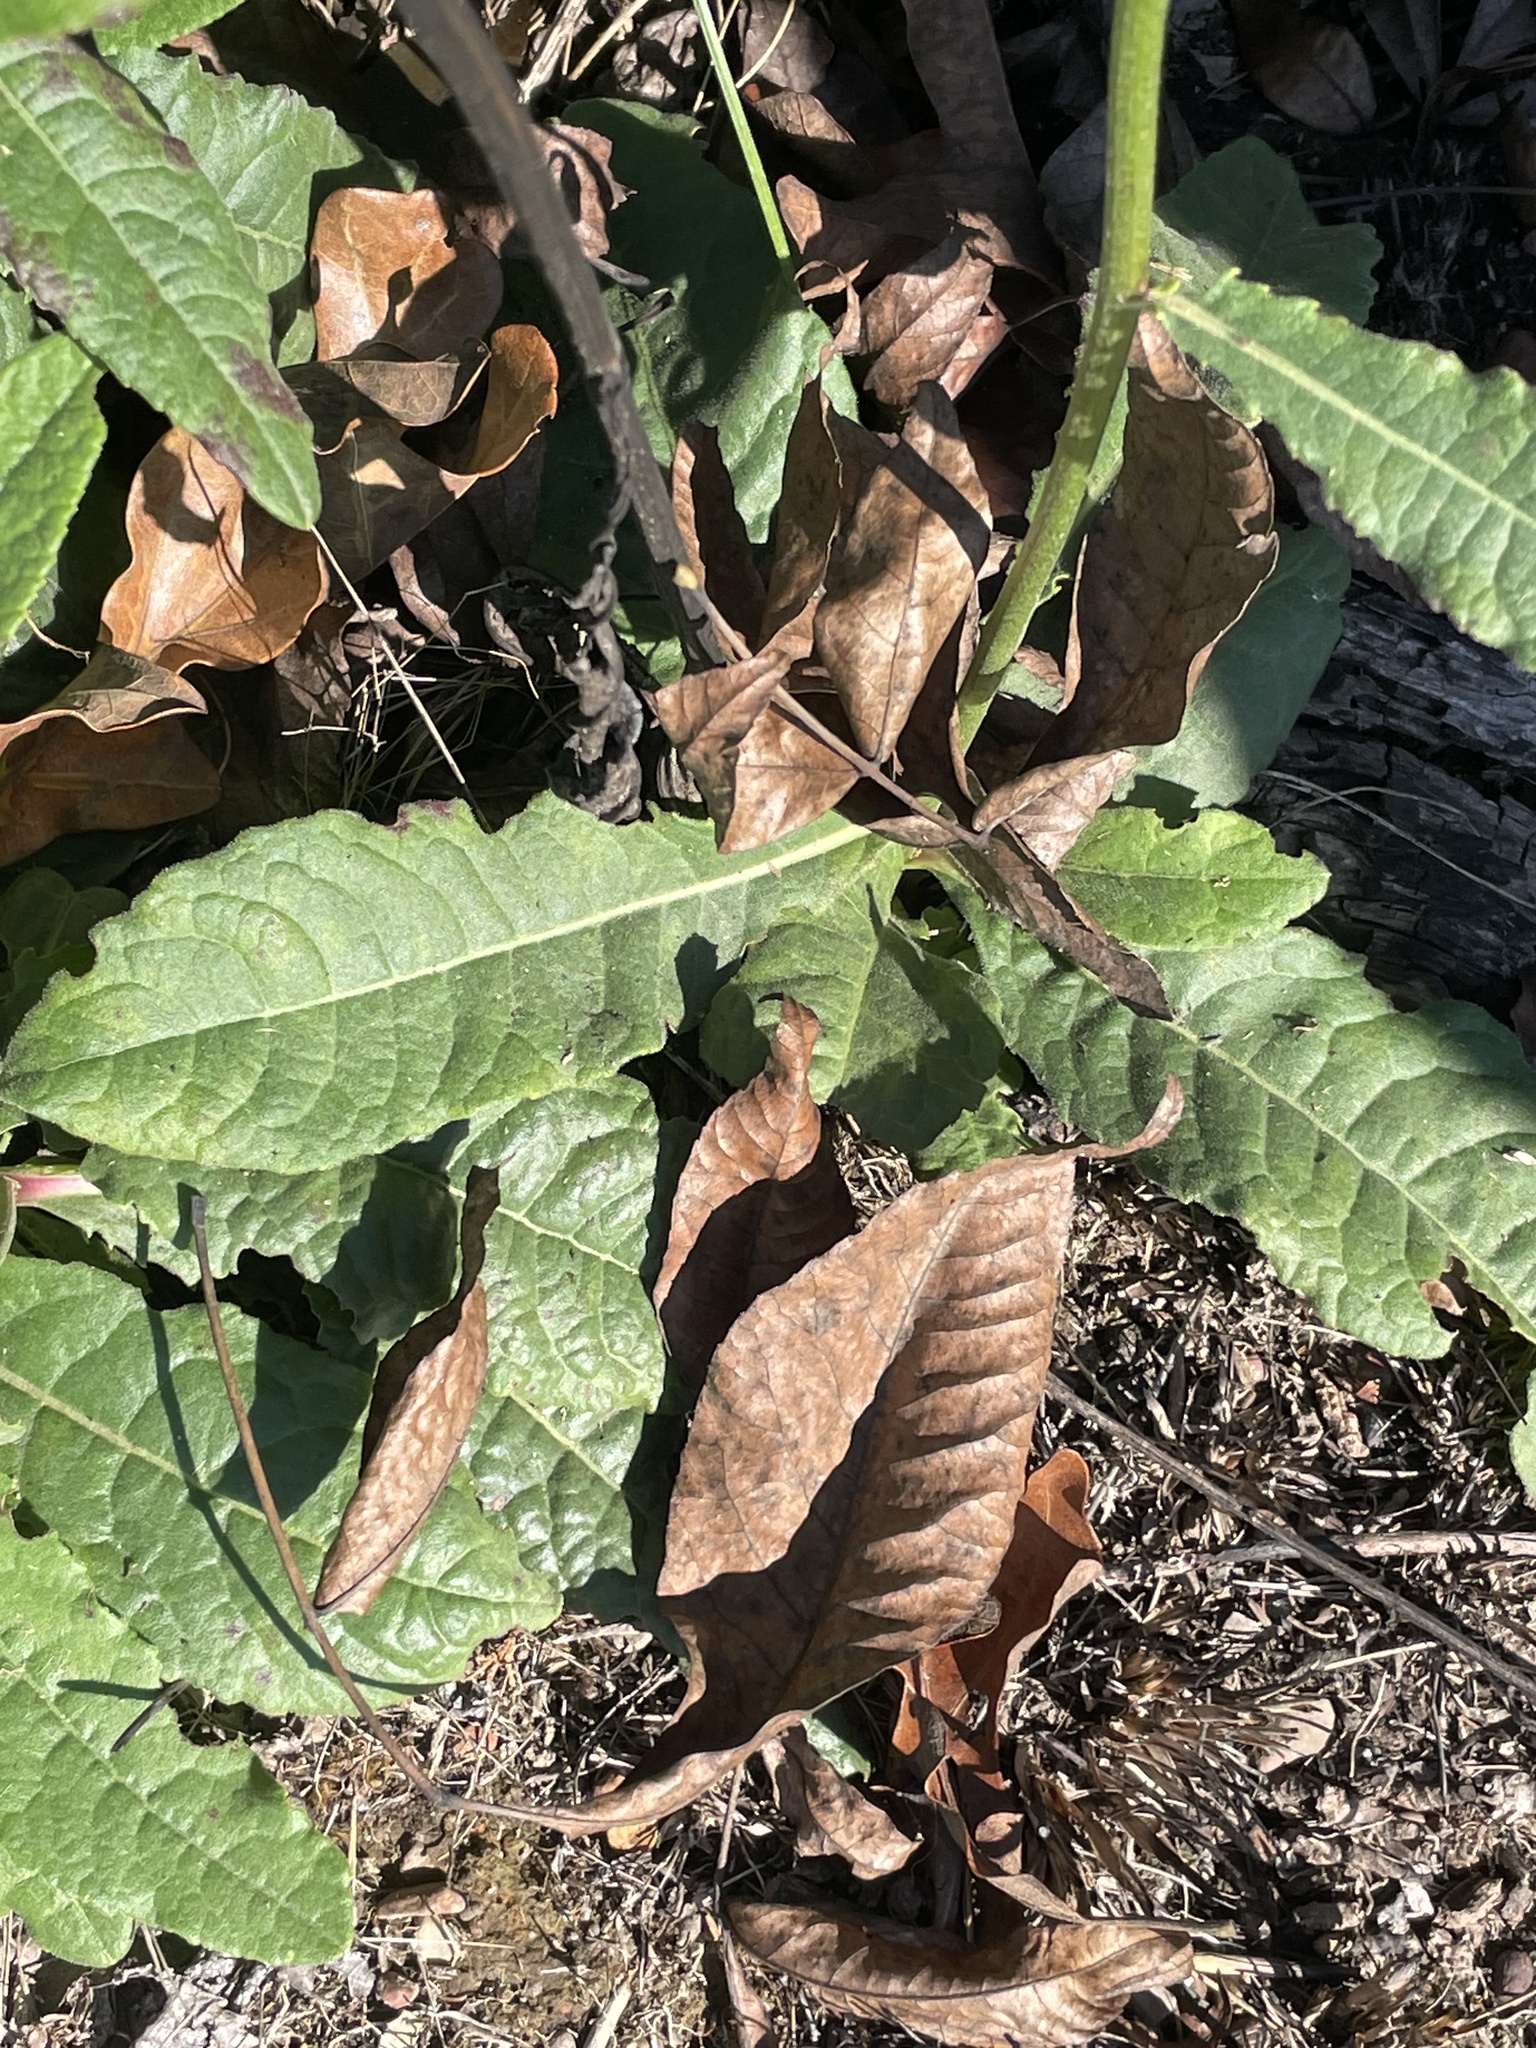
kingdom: Plantae
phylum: Tracheophyta
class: Magnoliopsida
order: Asterales
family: Asteraceae
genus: Vernonia
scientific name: Vernonia acaulis
